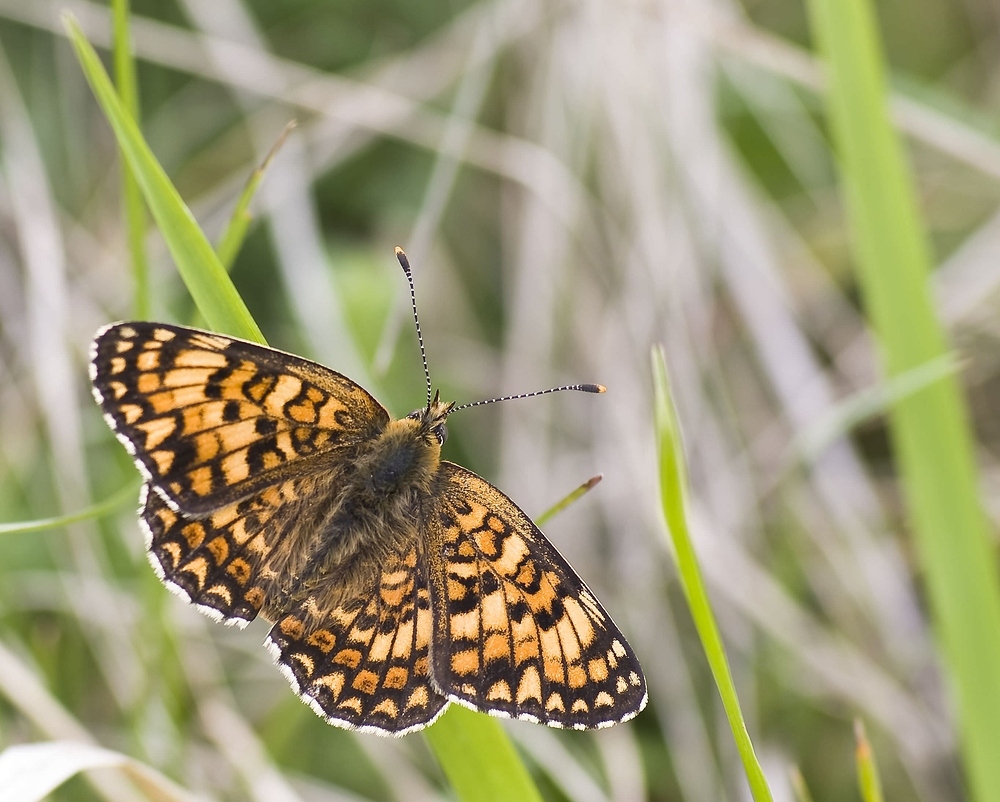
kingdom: Animalia
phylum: Arthropoda
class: Insecta
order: Lepidoptera
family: Nymphalidae
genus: Melitaea
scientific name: Melitaea phoebe
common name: Knapweed fritillary
